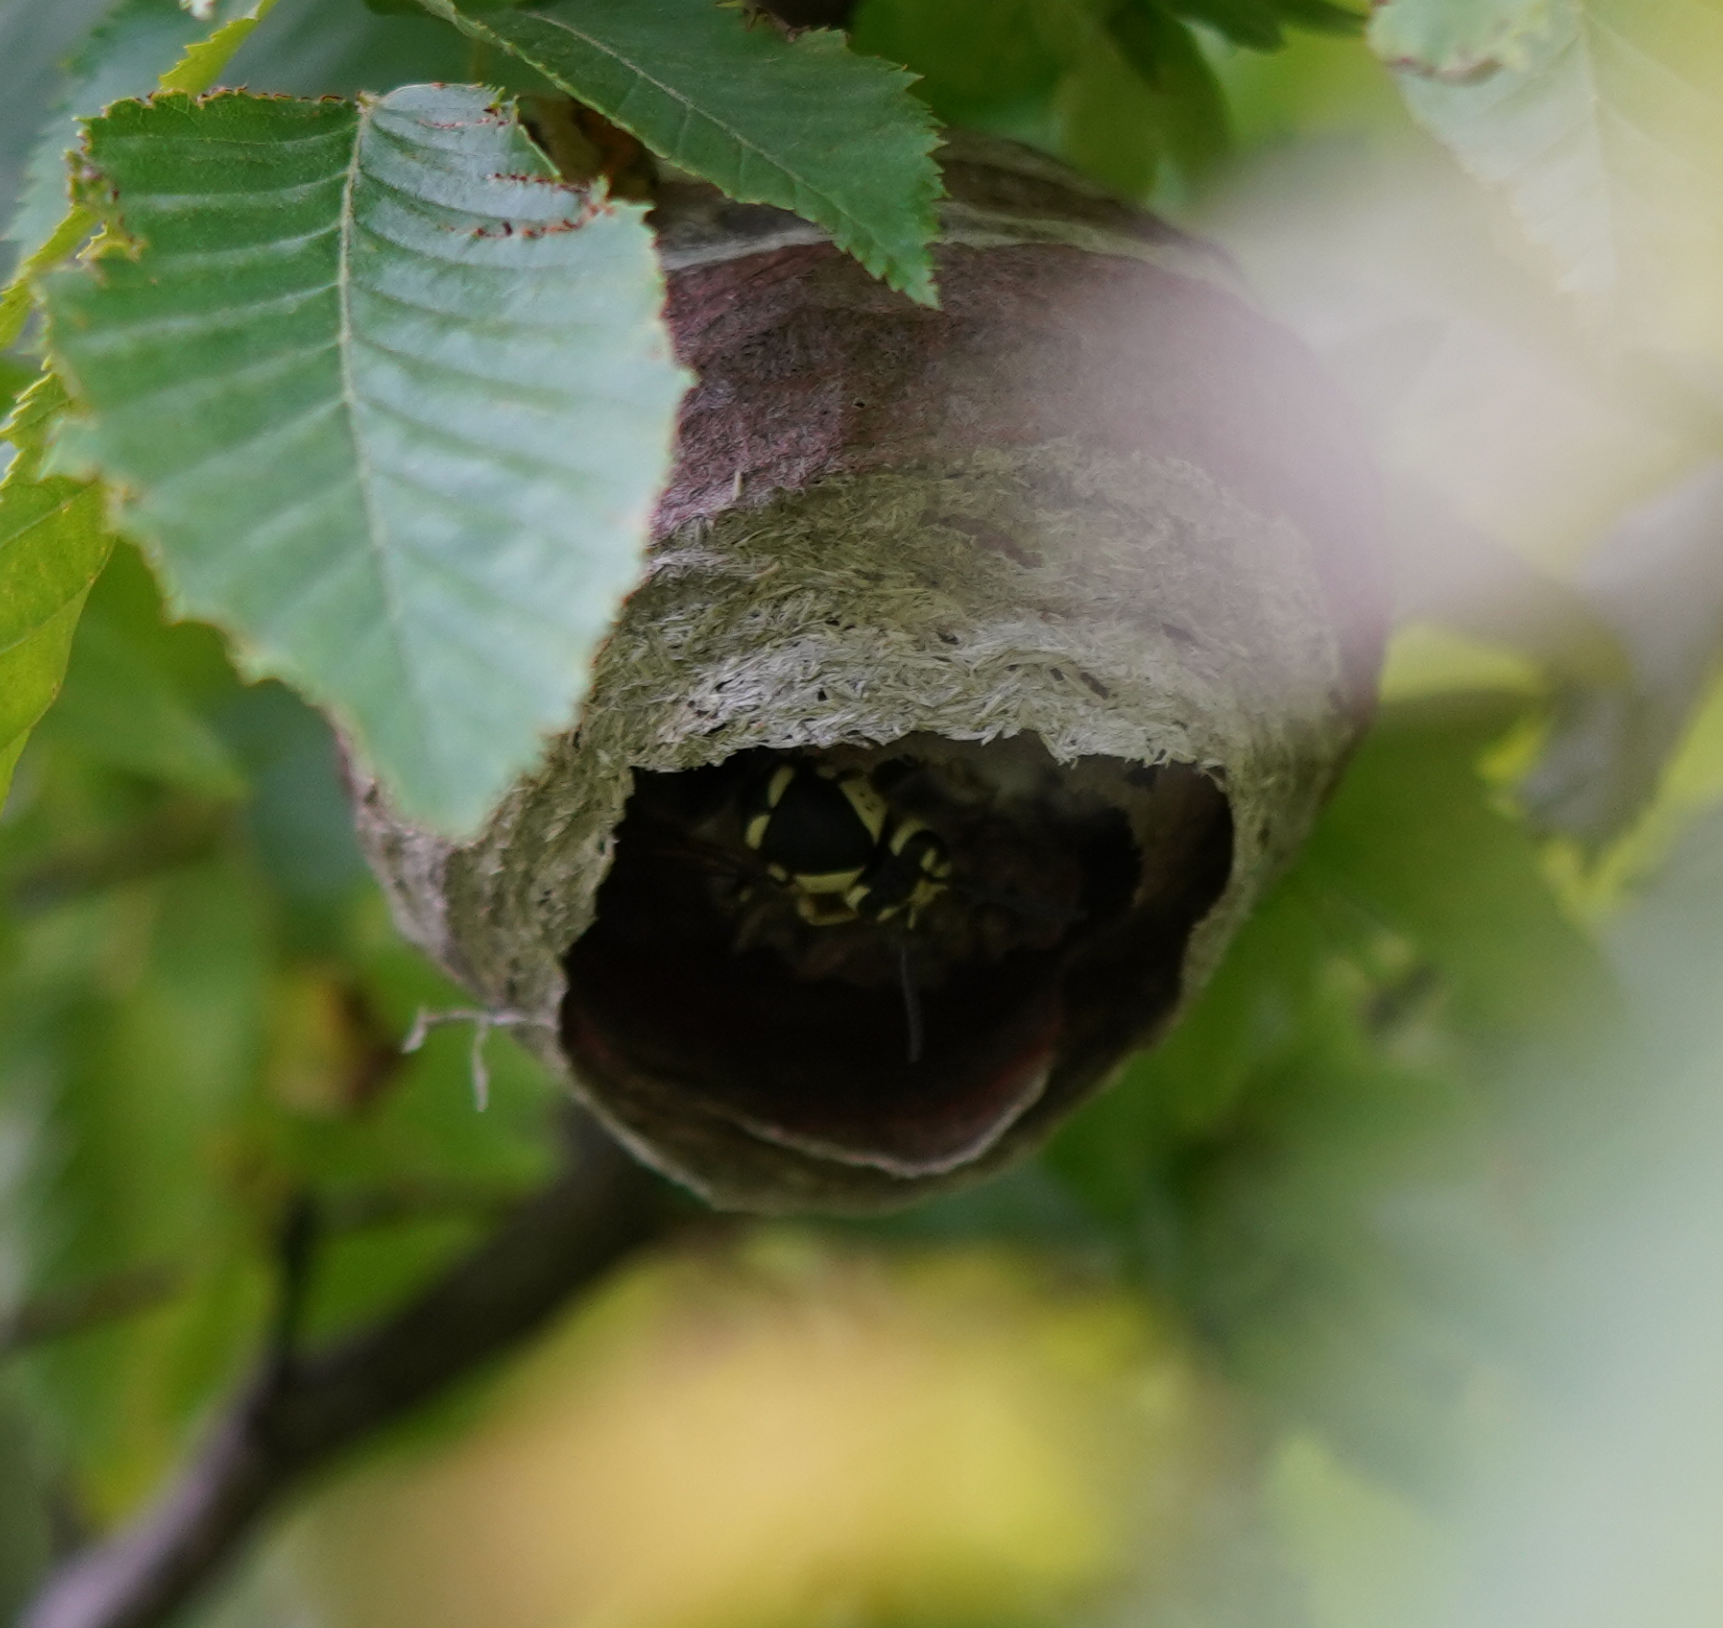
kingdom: Animalia
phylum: Arthropoda
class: Insecta
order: Hymenoptera
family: Vespidae
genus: Dolichovespula
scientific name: Dolichovespula maculata
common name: Bald-faced hornet
